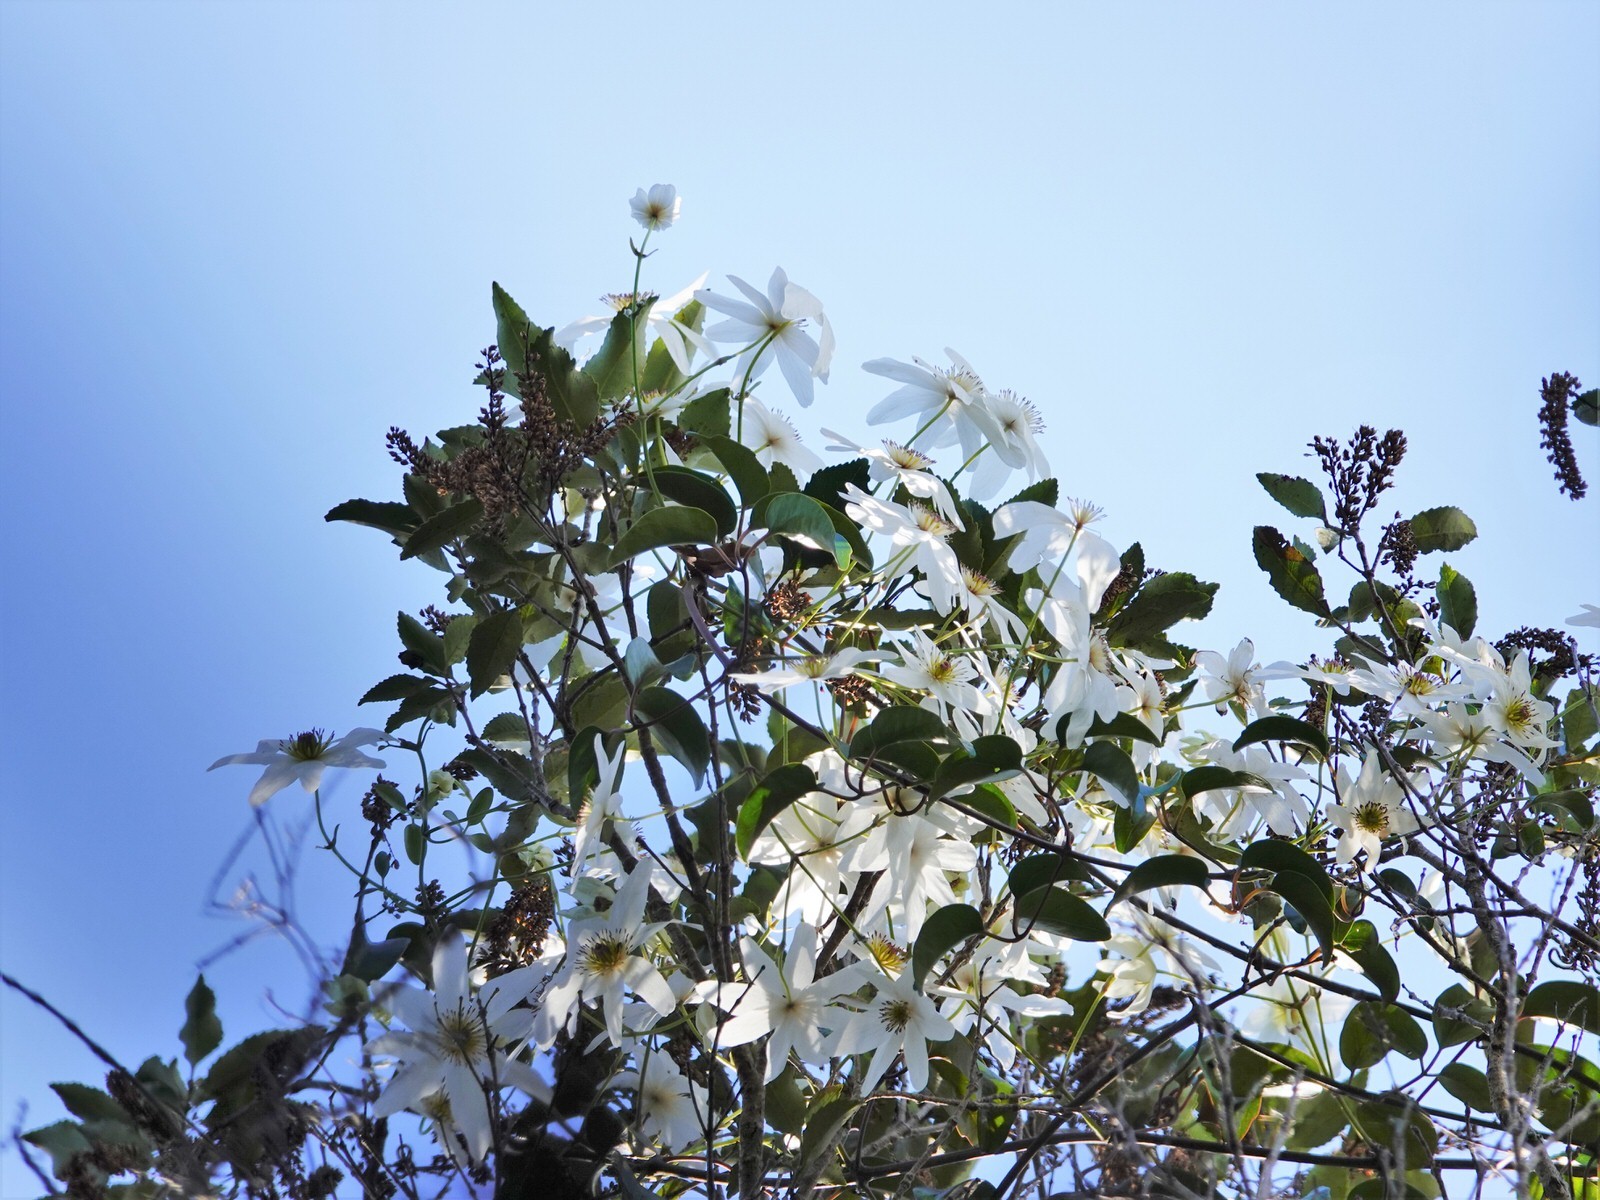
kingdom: Plantae
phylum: Tracheophyta
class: Magnoliopsida
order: Ranunculales
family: Ranunculaceae
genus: Clematis
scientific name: Clematis paniculata
